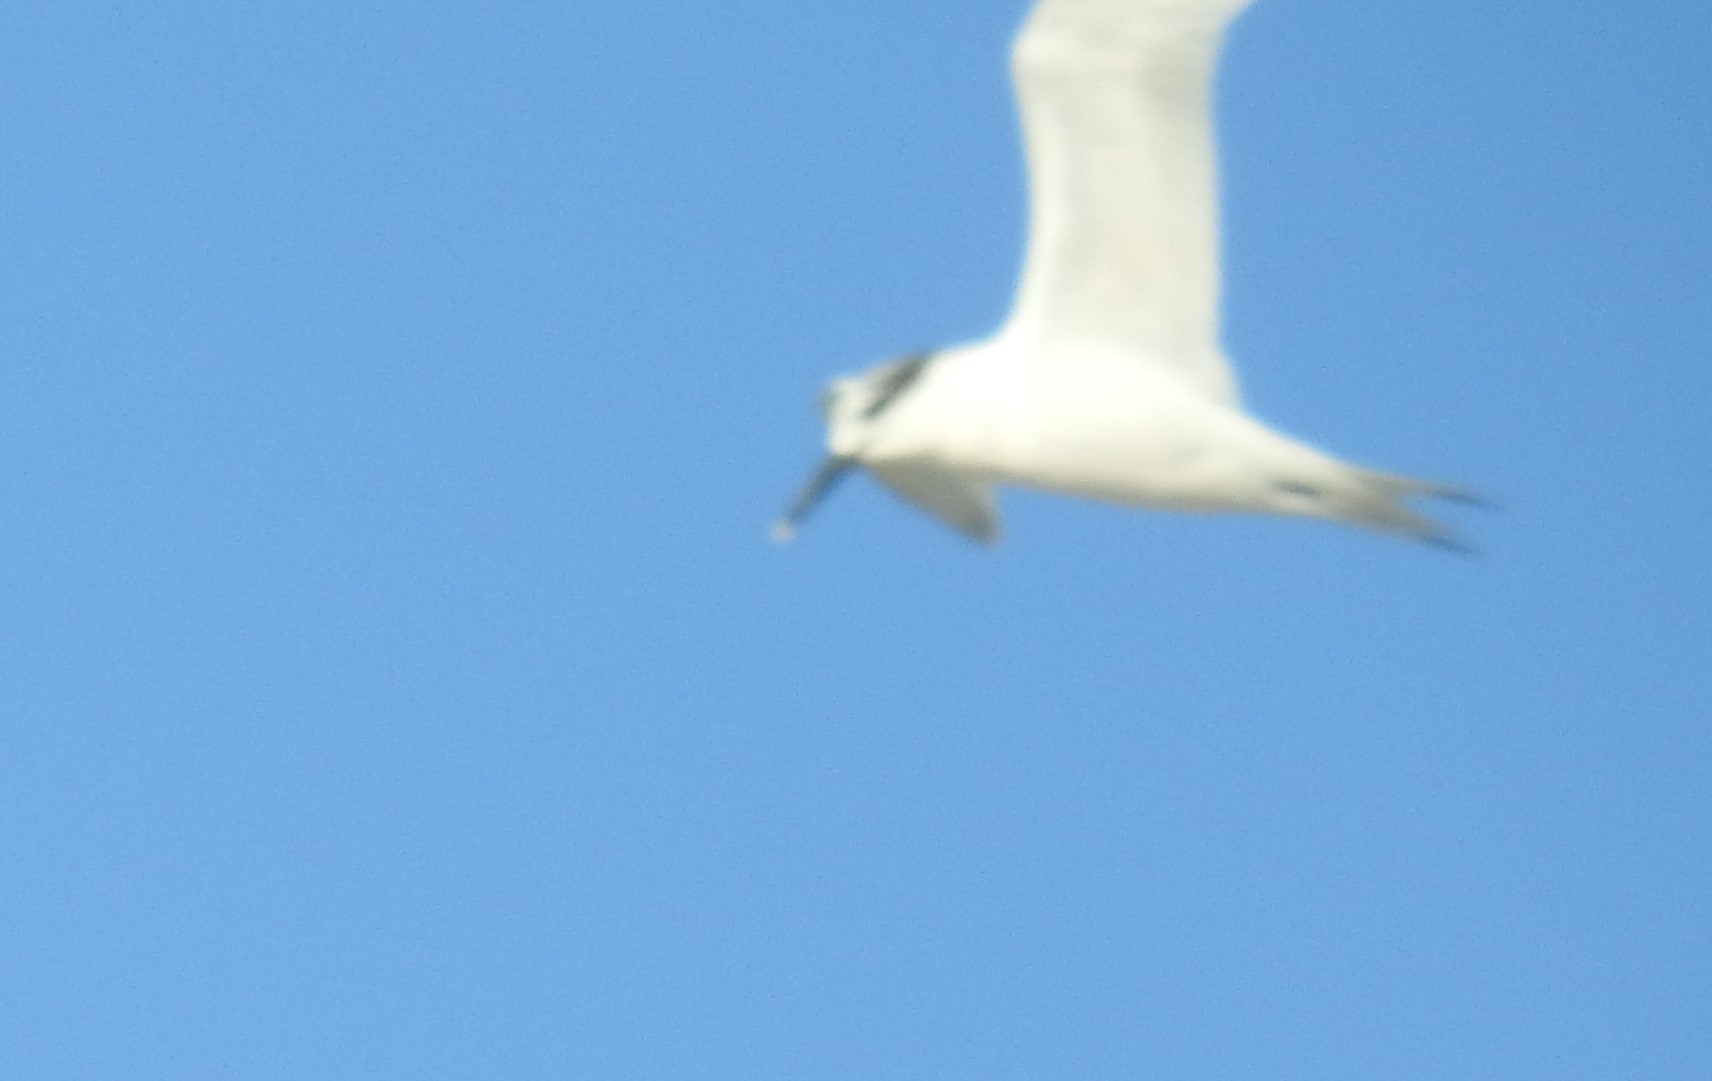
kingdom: Animalia
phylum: Chordata
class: Aves
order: Charadriiformes
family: Laridae
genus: Thalasseus
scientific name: Thalasseus sandvicensis
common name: Sandwich tern
